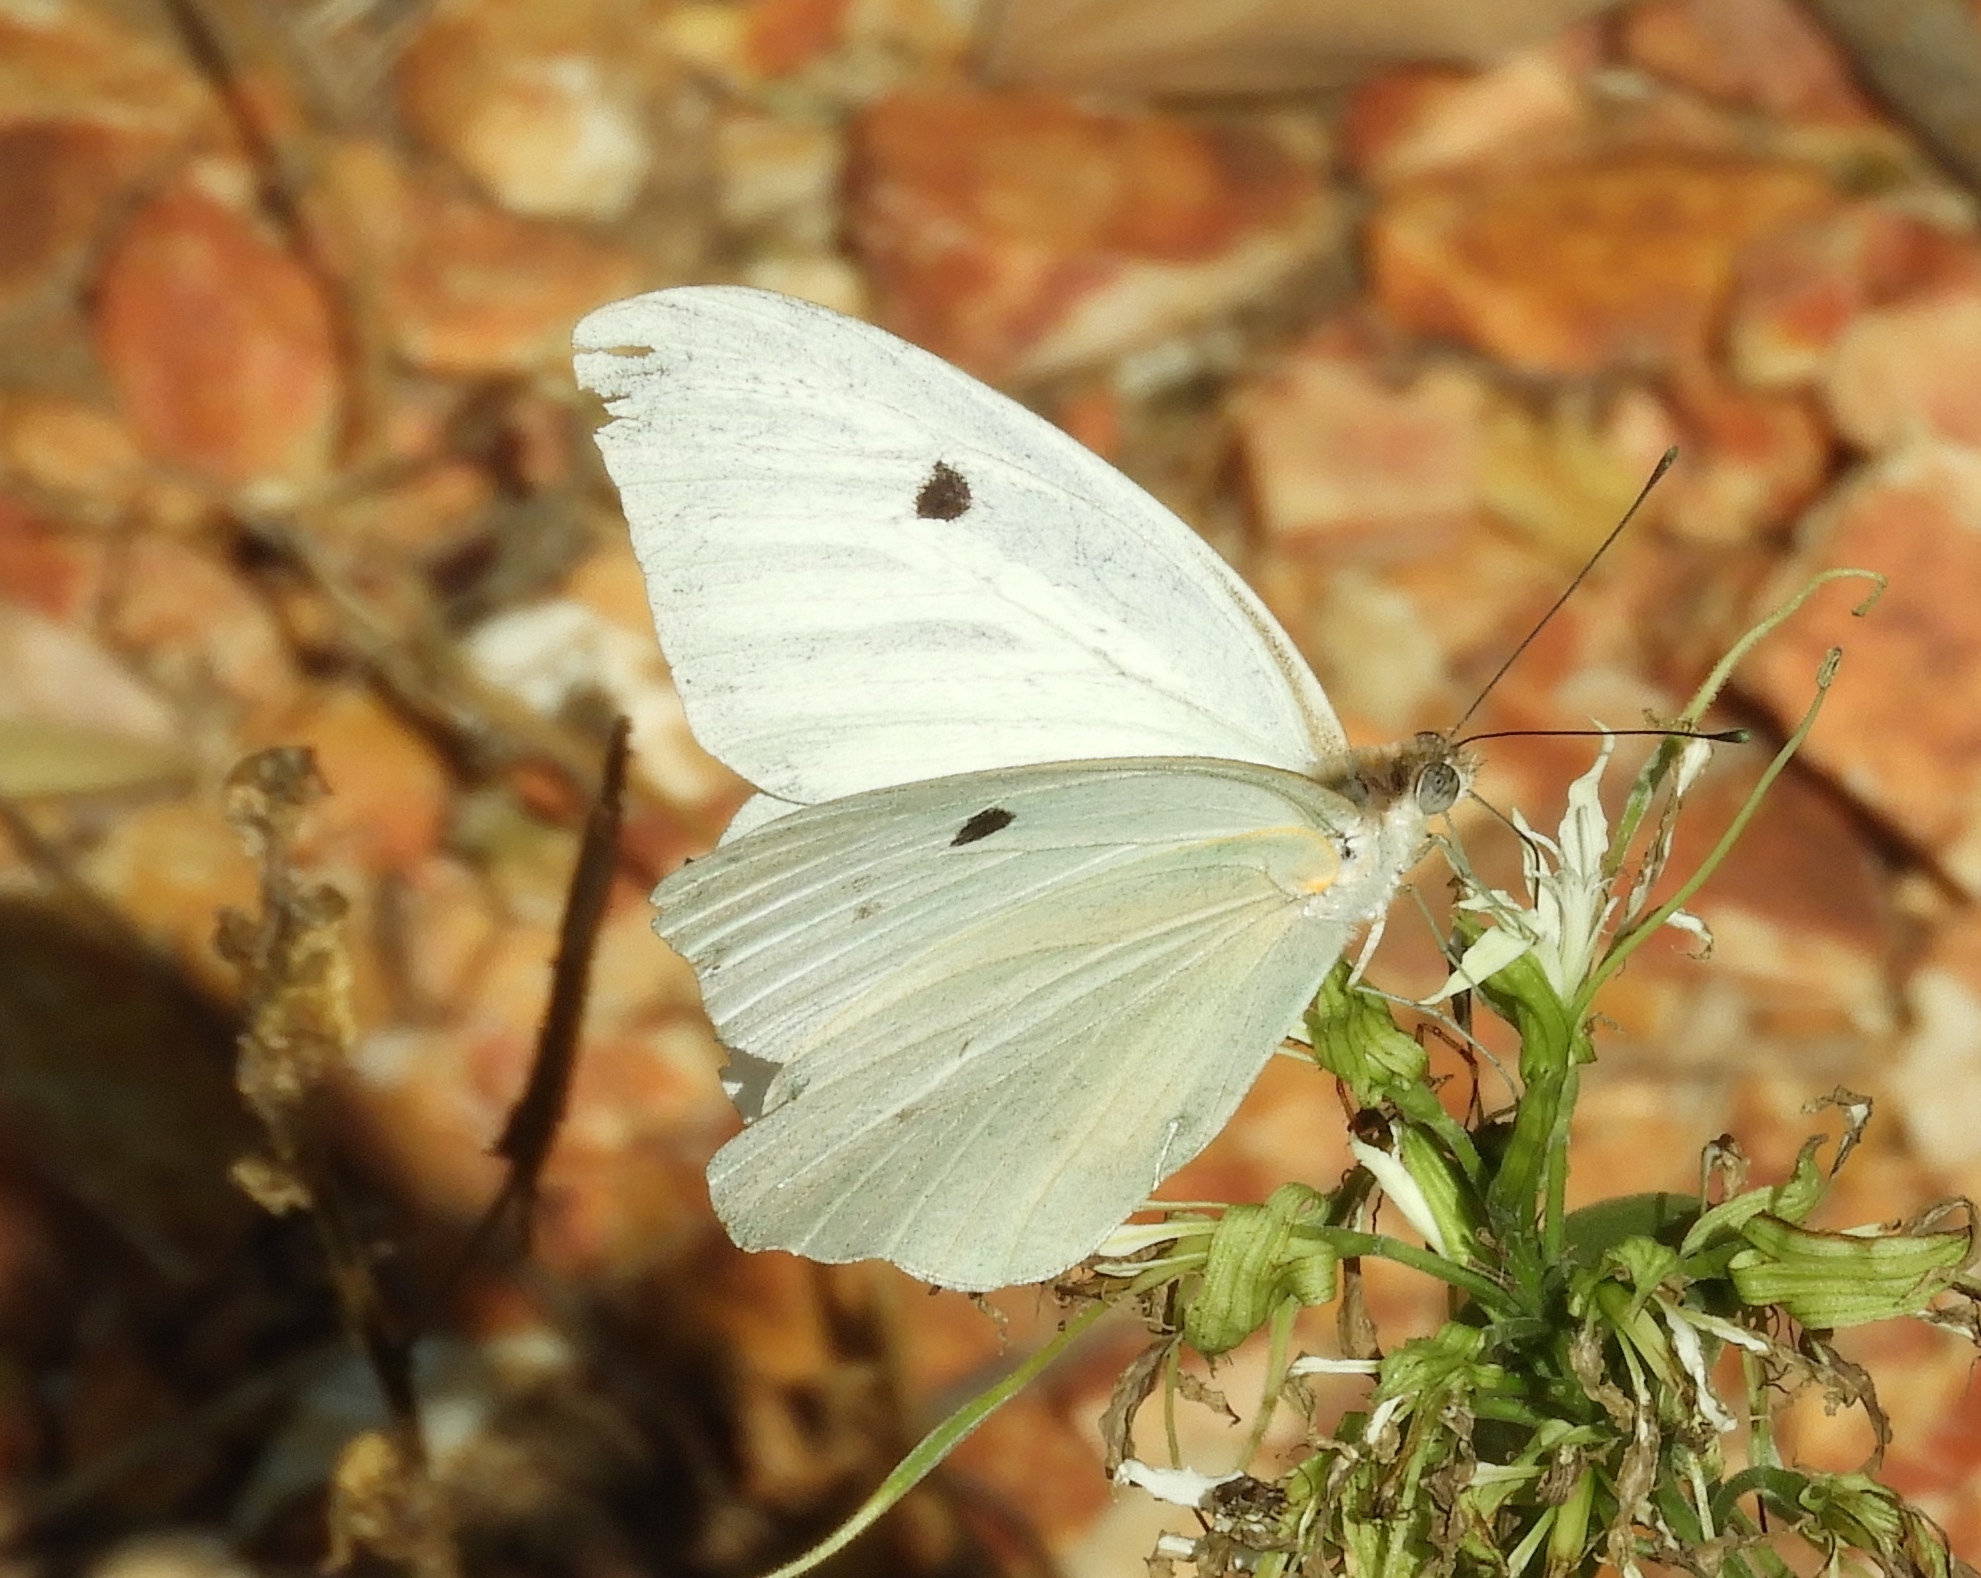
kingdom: Animalia
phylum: Arthropoda
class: Insecta
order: Lepidoptera
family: Pieridae
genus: Ganyra
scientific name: Ganyra josephina
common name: Giant white
